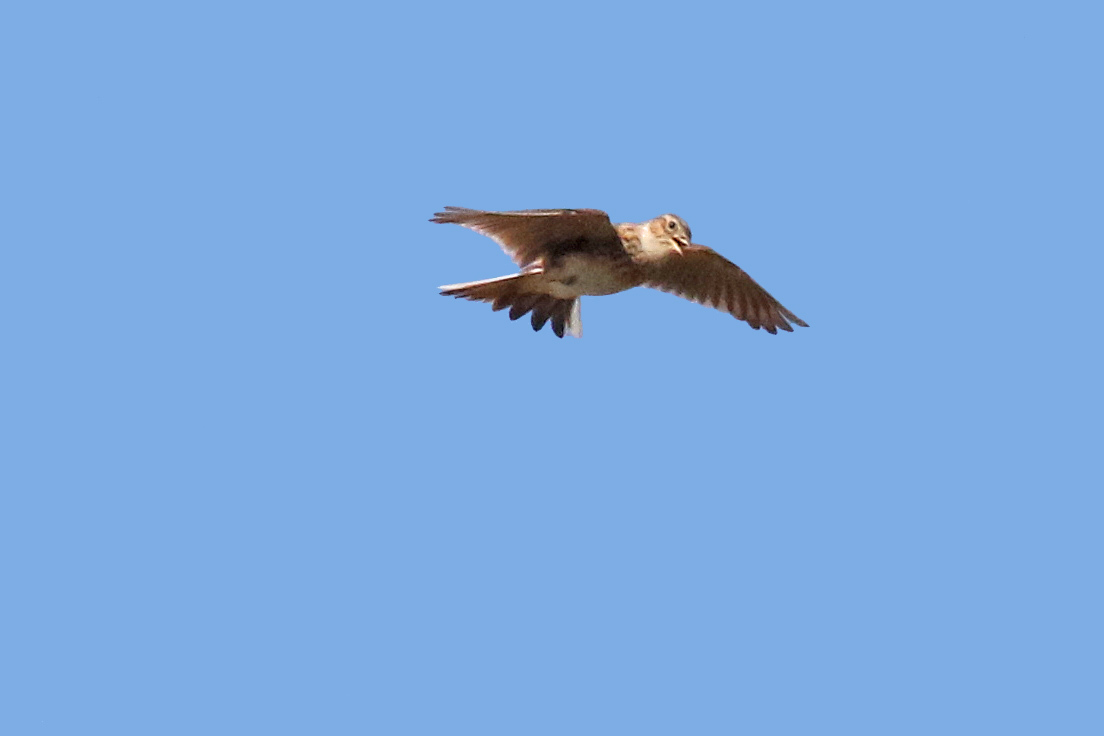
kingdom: Animalia
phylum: Chordata
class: Aves
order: Passeriformes
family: Alaudidae
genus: Alauda
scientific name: Alauda arvensis
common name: Eurasian skylark
